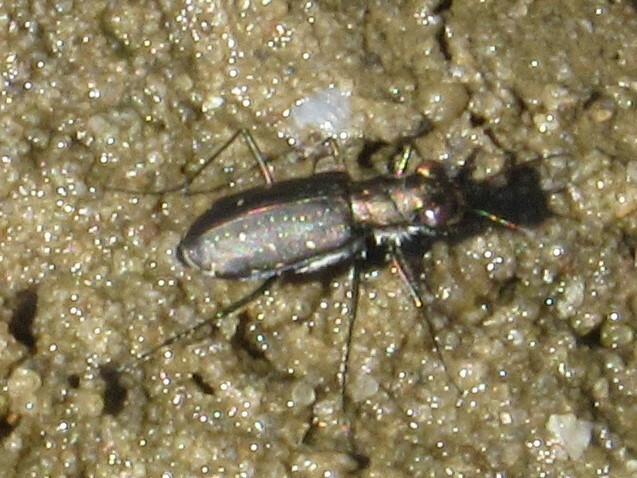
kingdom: Animalia
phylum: Arthropoda
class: Insecta
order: Coleoptera
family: Carabidae
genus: Cicindela
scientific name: Cicindela punctulata
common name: Punctured tiger beetle
